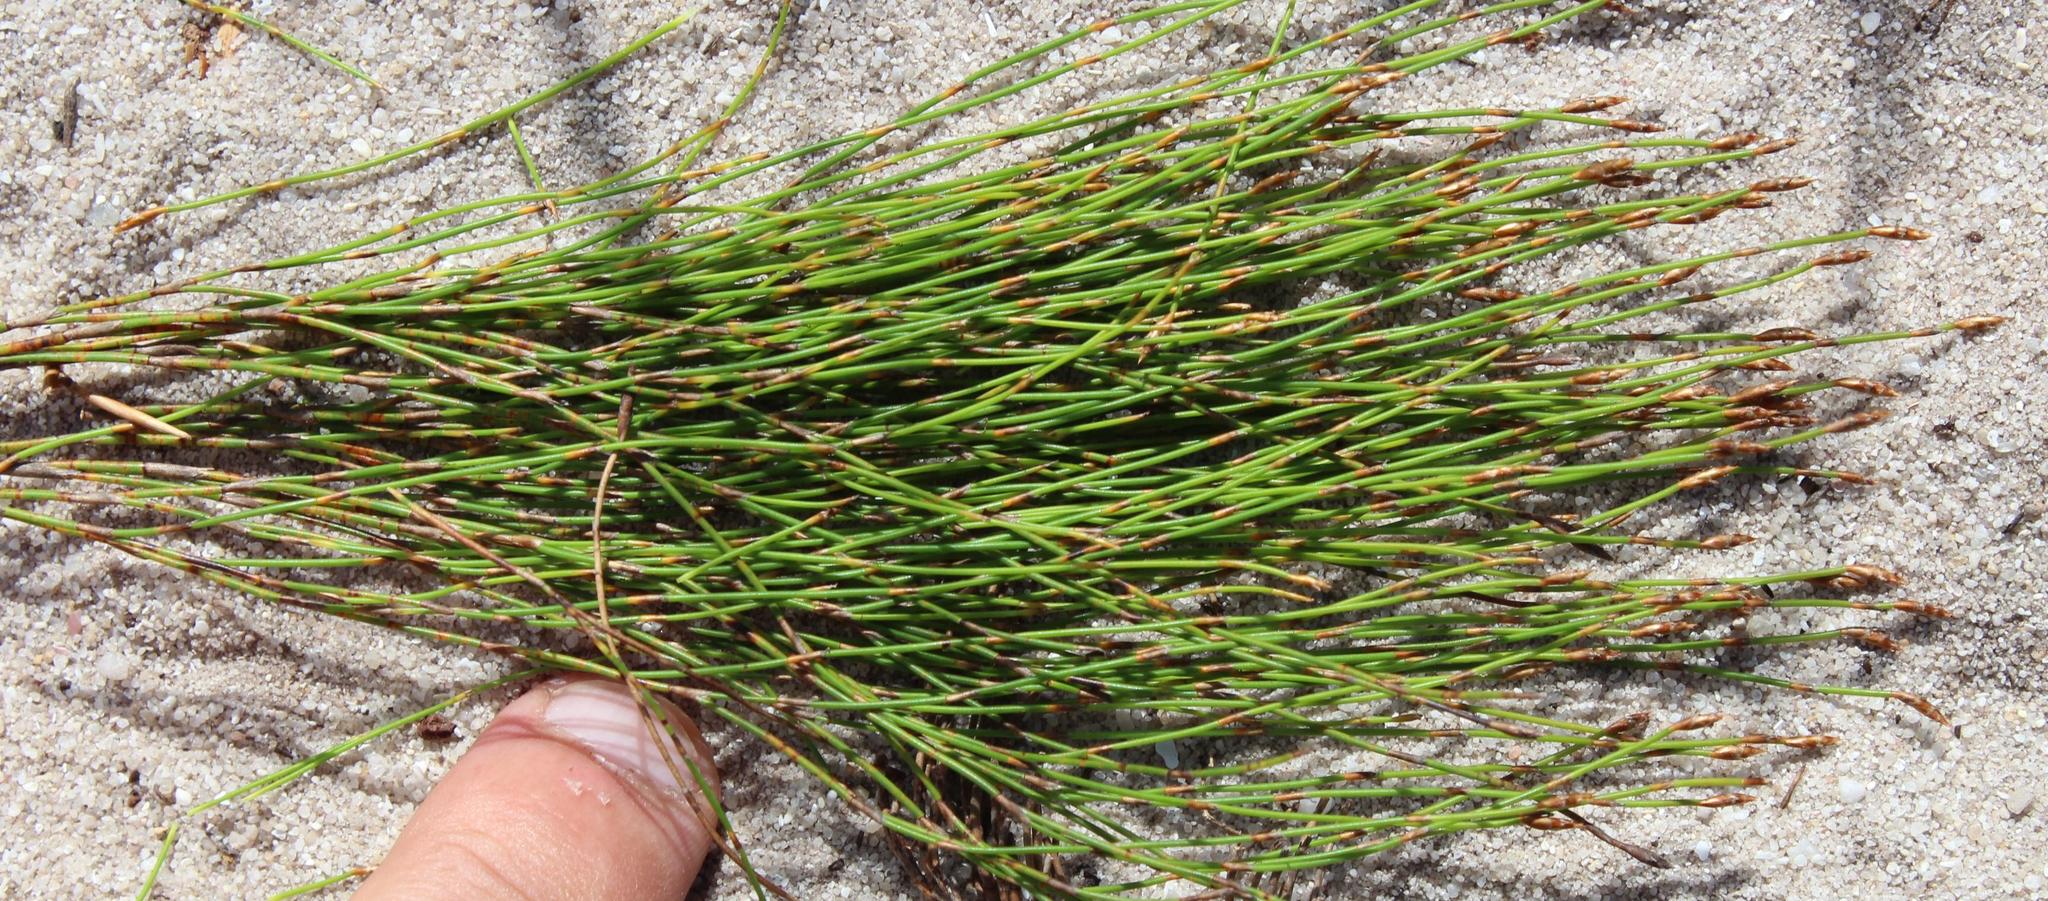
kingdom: Plantae
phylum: Tracheophyta
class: Liliopsida
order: Poales
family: Restionaceae
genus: Restio
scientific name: Restio eleocharis
